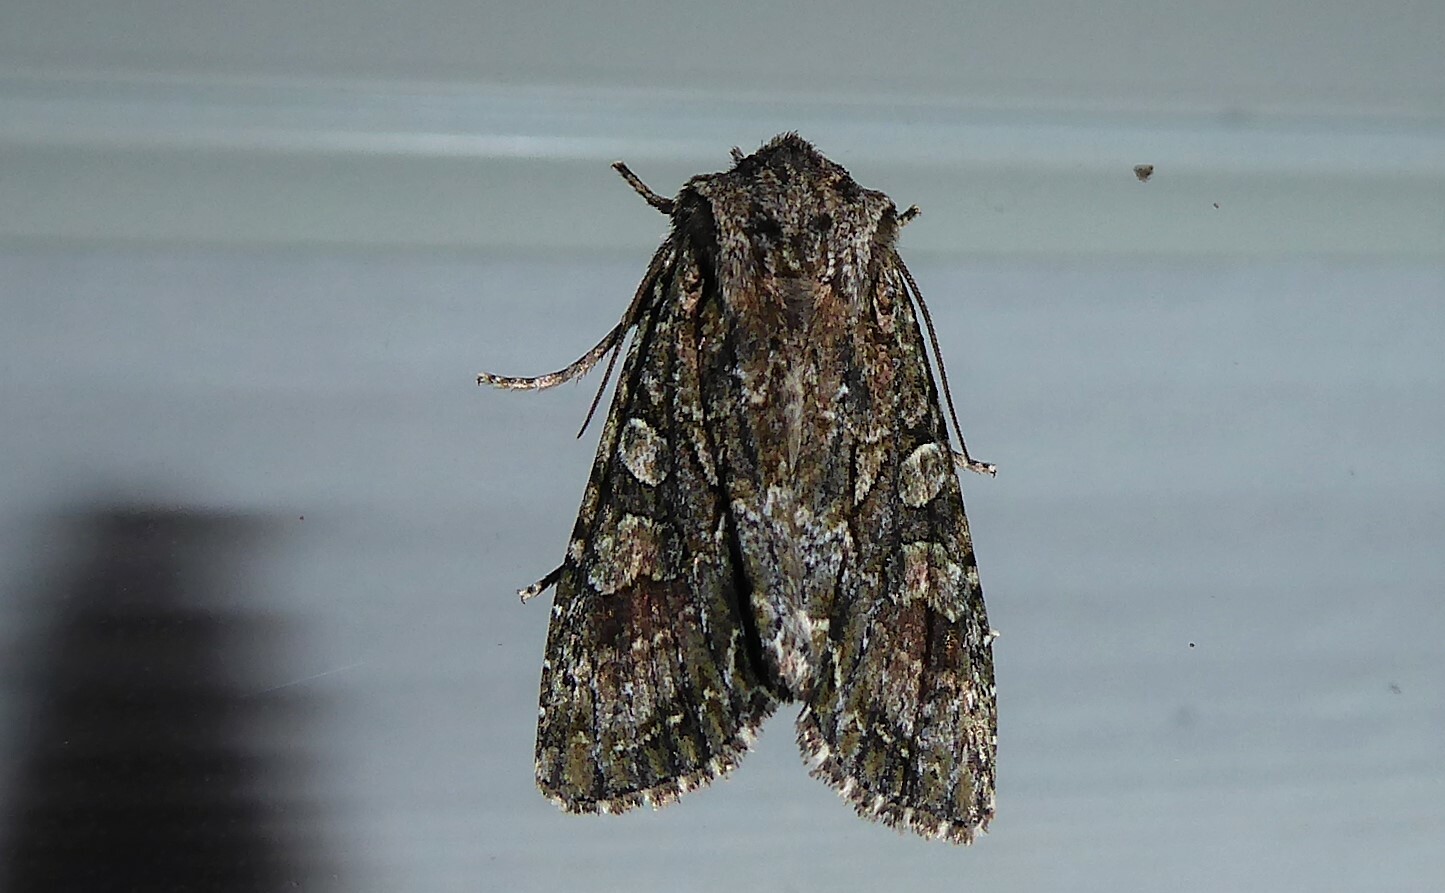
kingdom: Animalia
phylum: Arthropoda
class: Insecta
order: Lepidoptera
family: Noctuidae
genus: Ichneutica
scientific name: Ichneutica mutans
